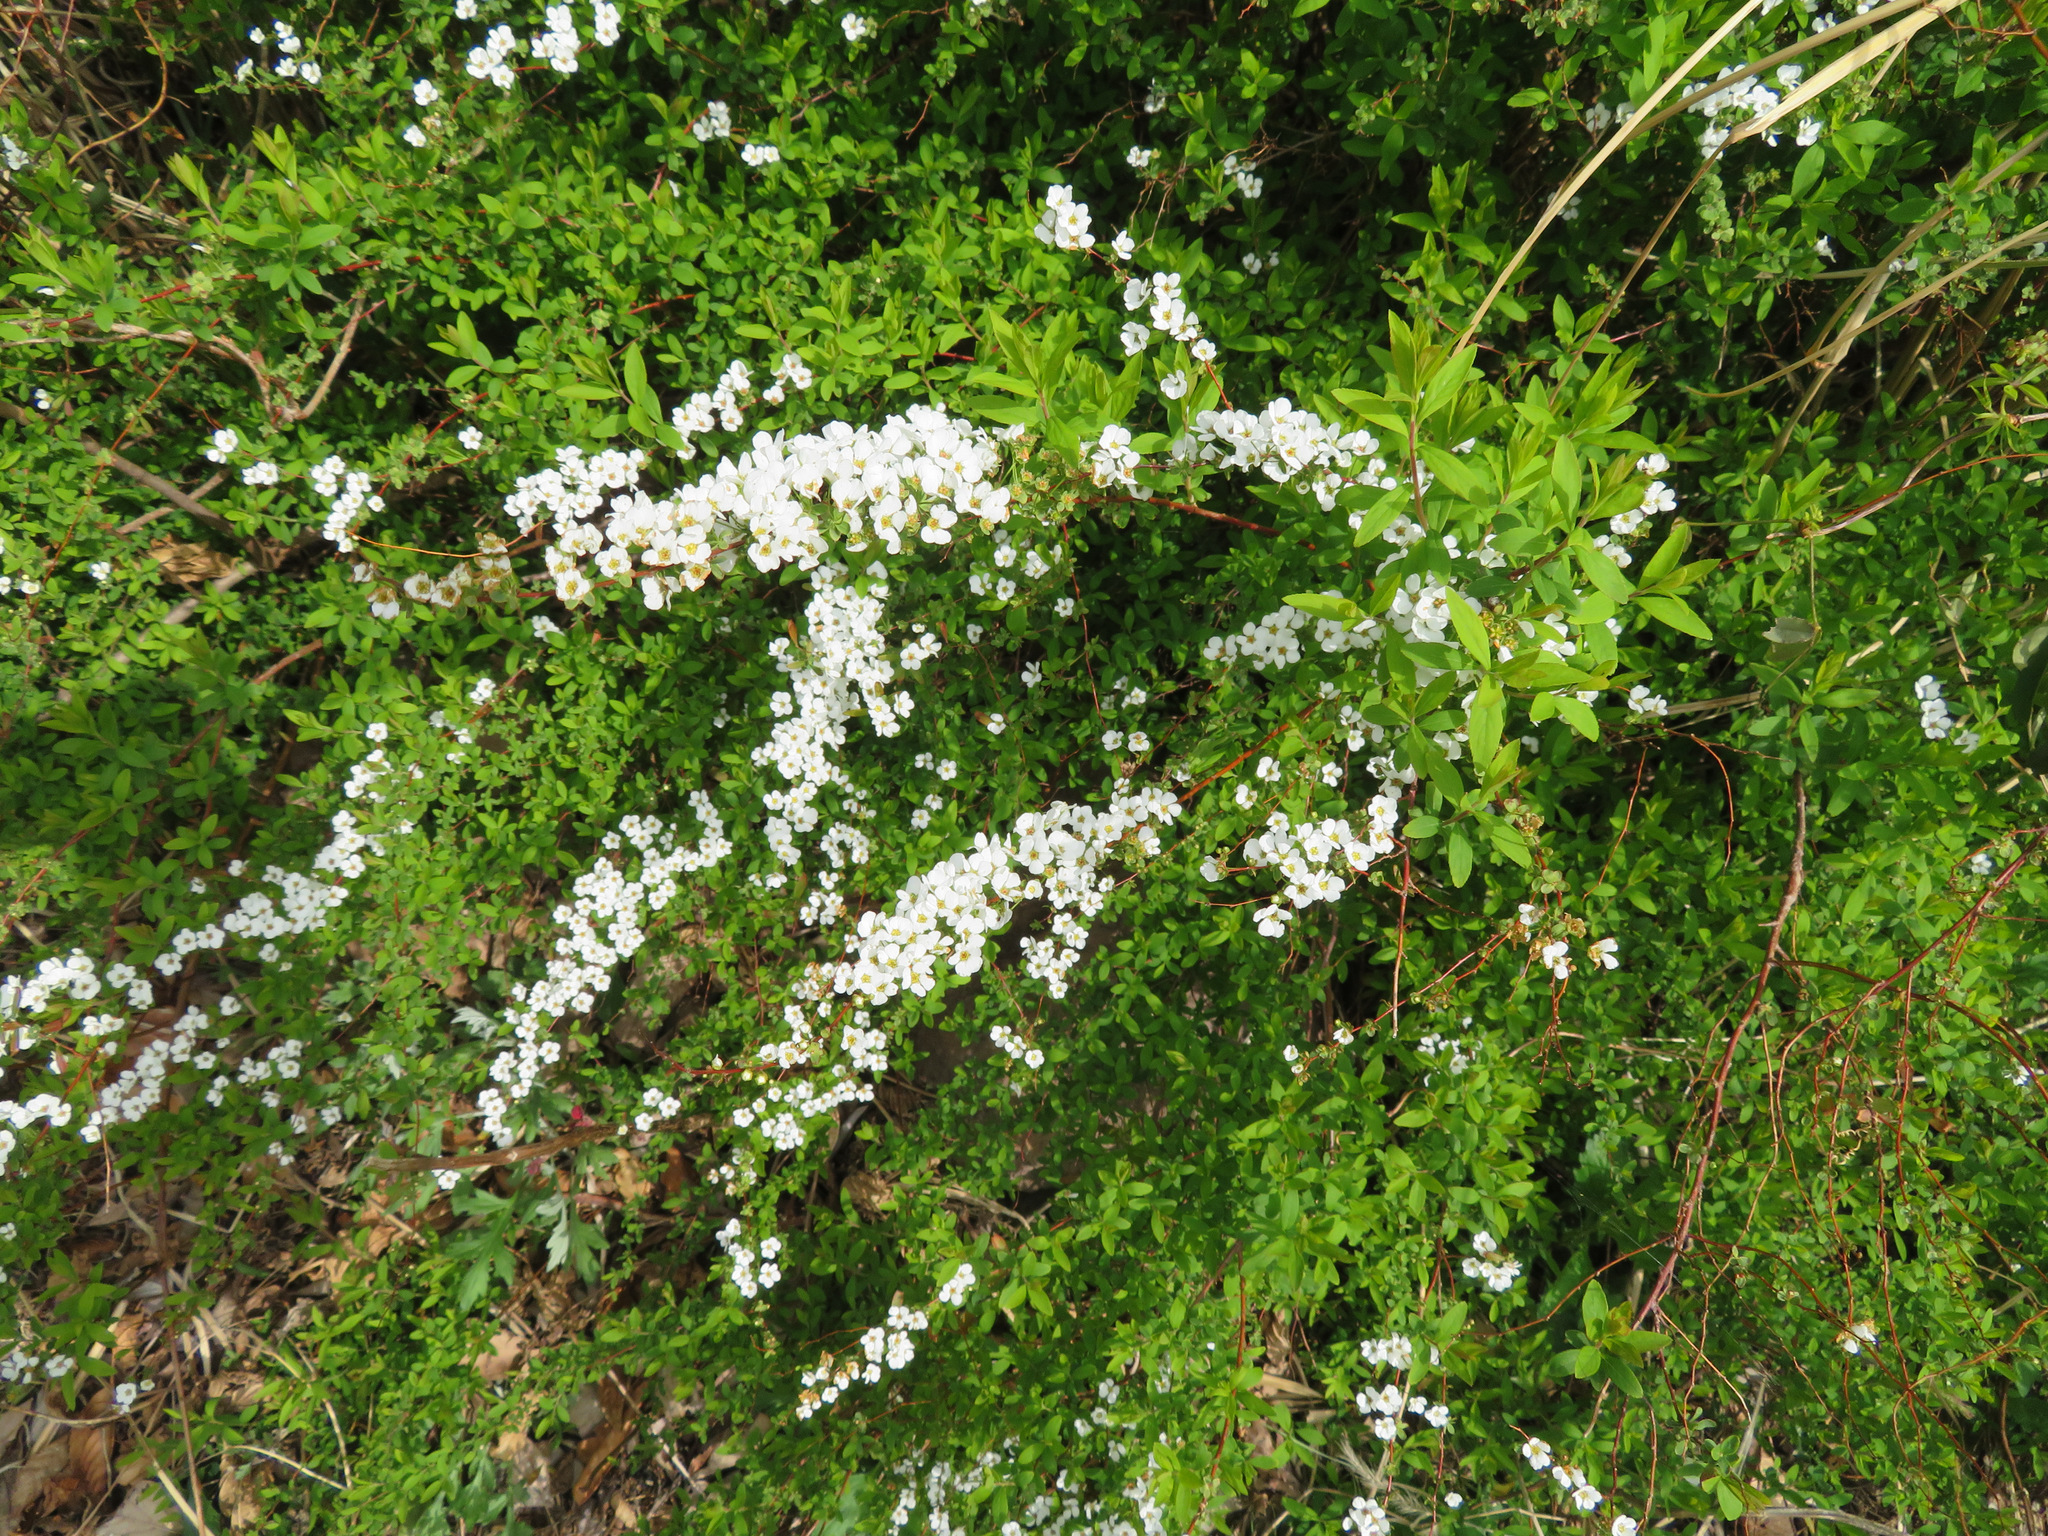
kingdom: Plantae
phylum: Tracheophyta
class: Magnoliopsida
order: Rosales
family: Rosaceae
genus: Spiraea
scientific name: Spiraea thunbergii
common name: Thunberg's meadowsweet
